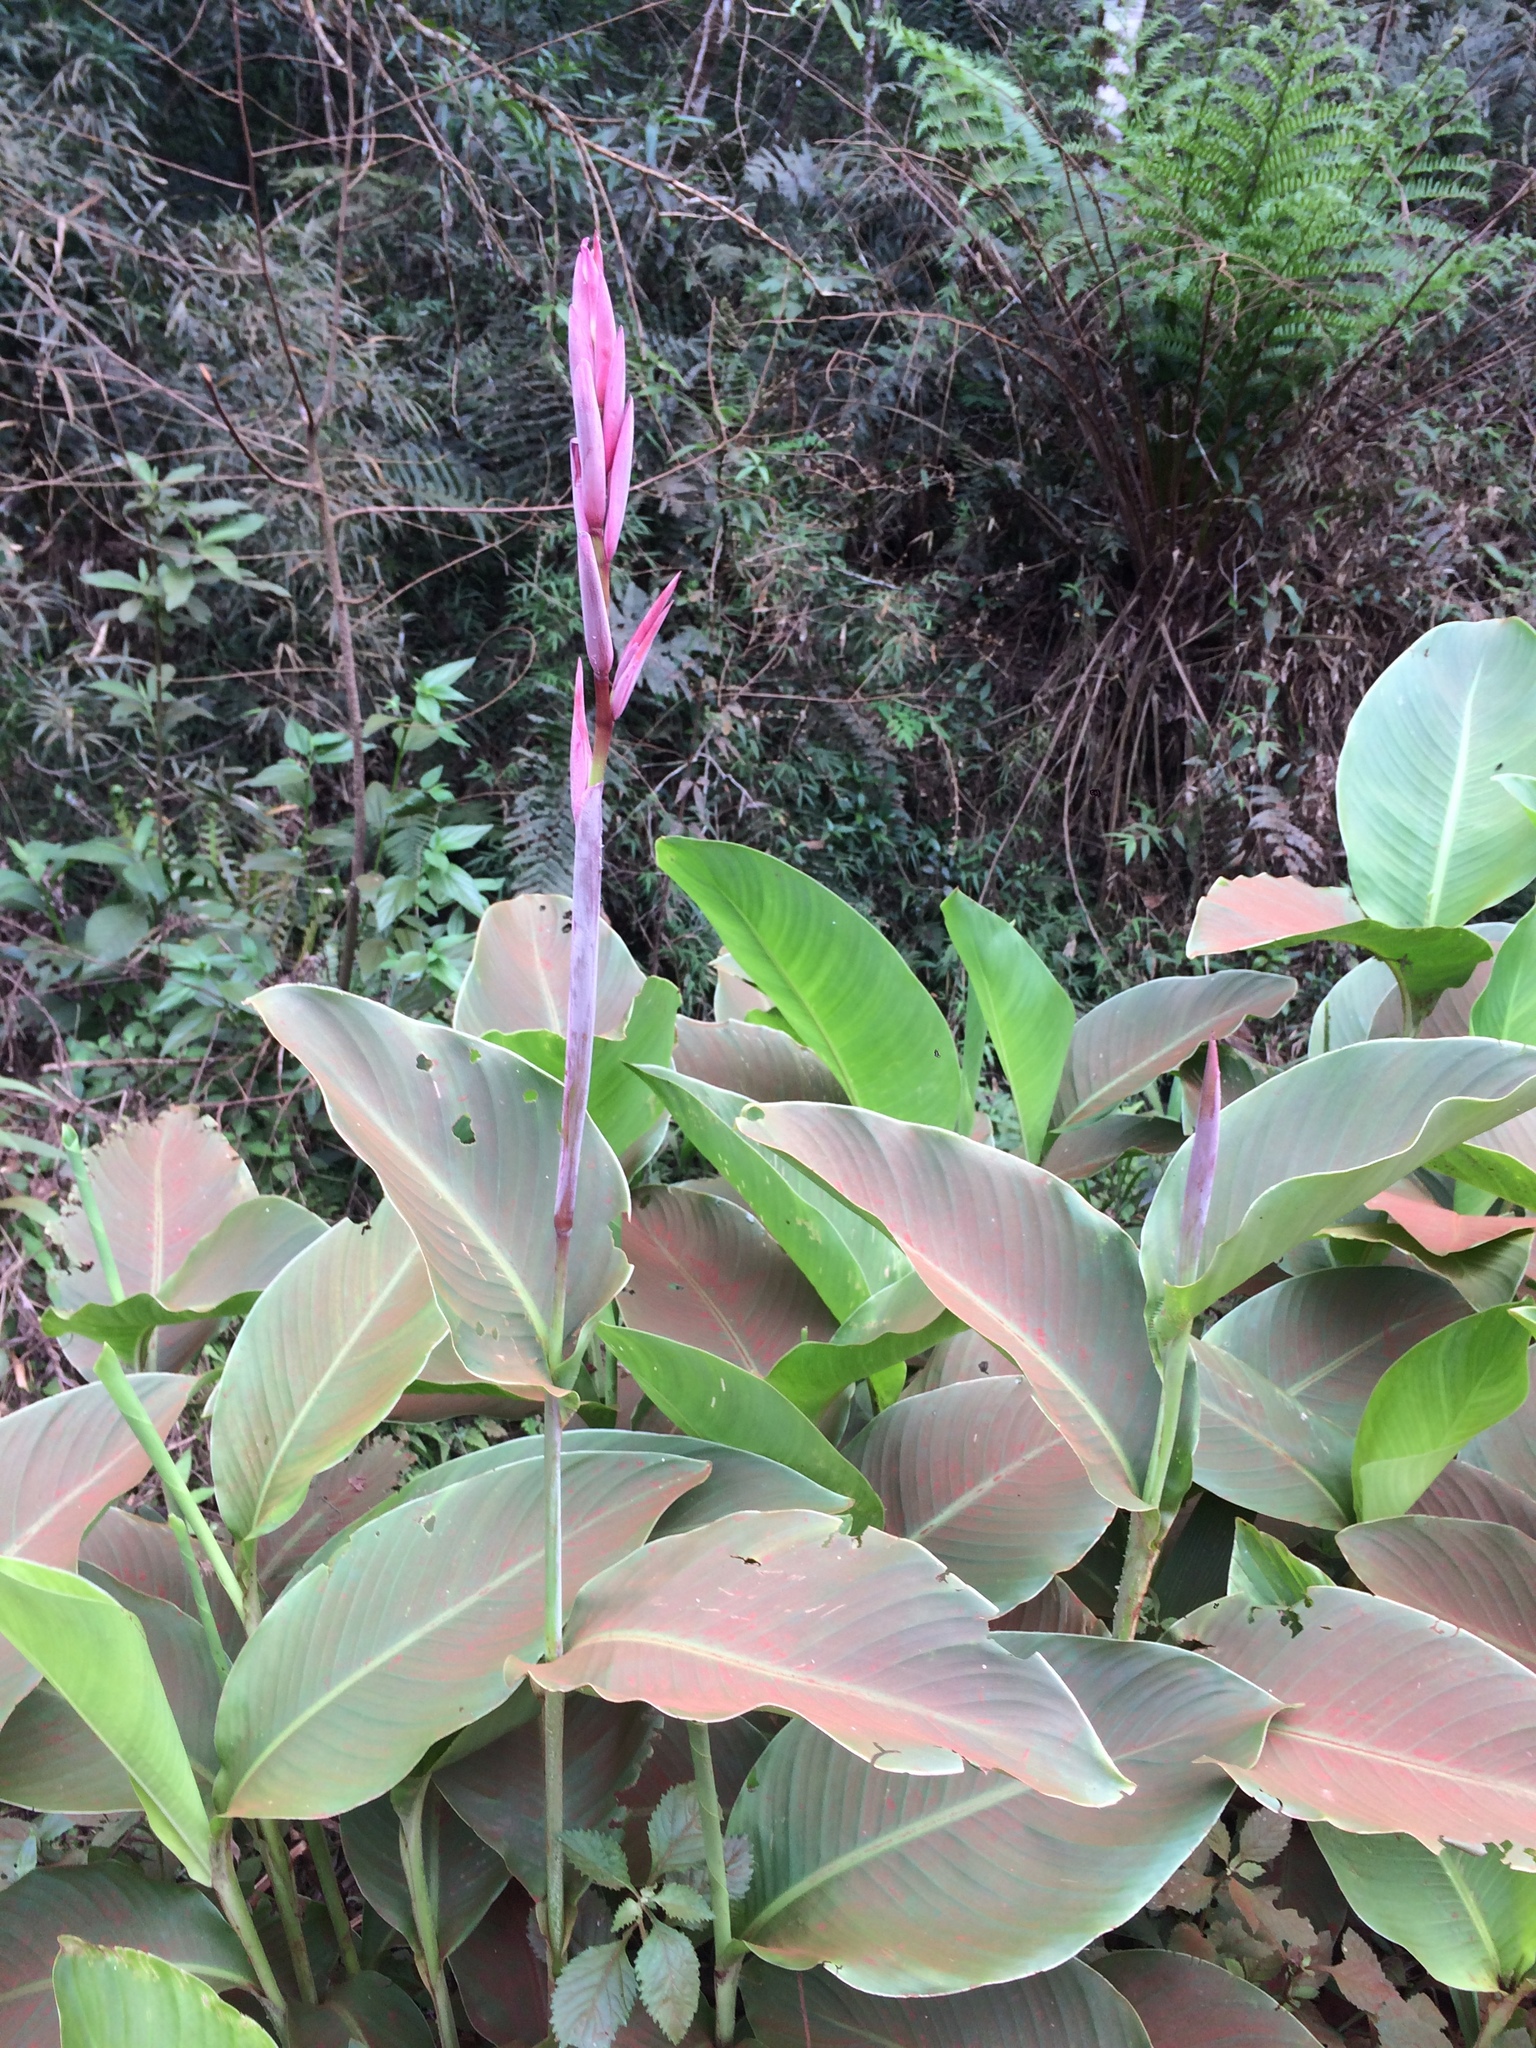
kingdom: Plantae
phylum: Tracheophyta
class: Liliopsida
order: Zingiberales
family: Cannaceae
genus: Canna
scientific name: Canna indica
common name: Indian shot
